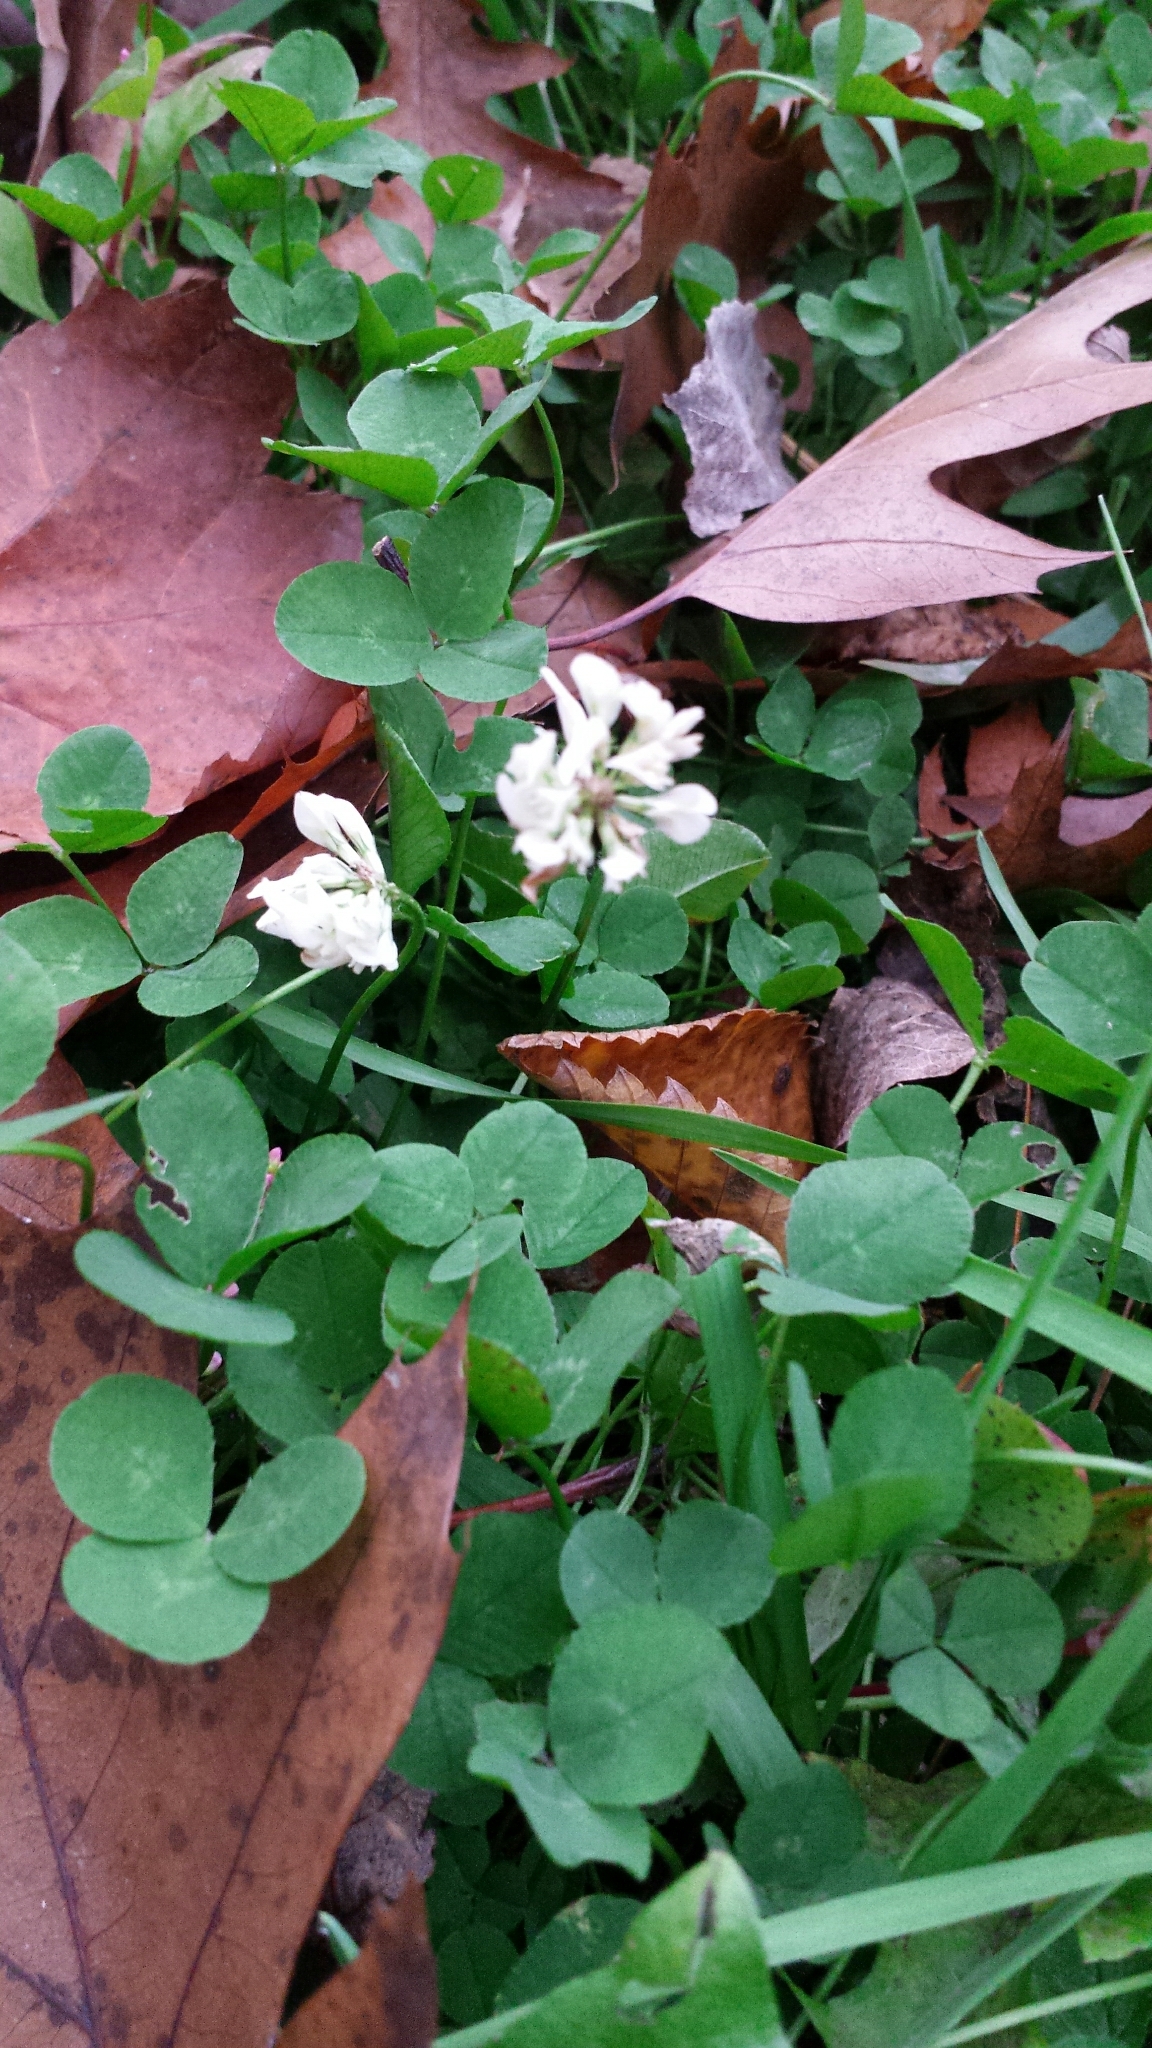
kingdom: Plantae
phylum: Tracheophyta
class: Magnoliopsida
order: Fabales
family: Fabaceae
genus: Trifolium
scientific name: Trifolium repens
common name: White clover
